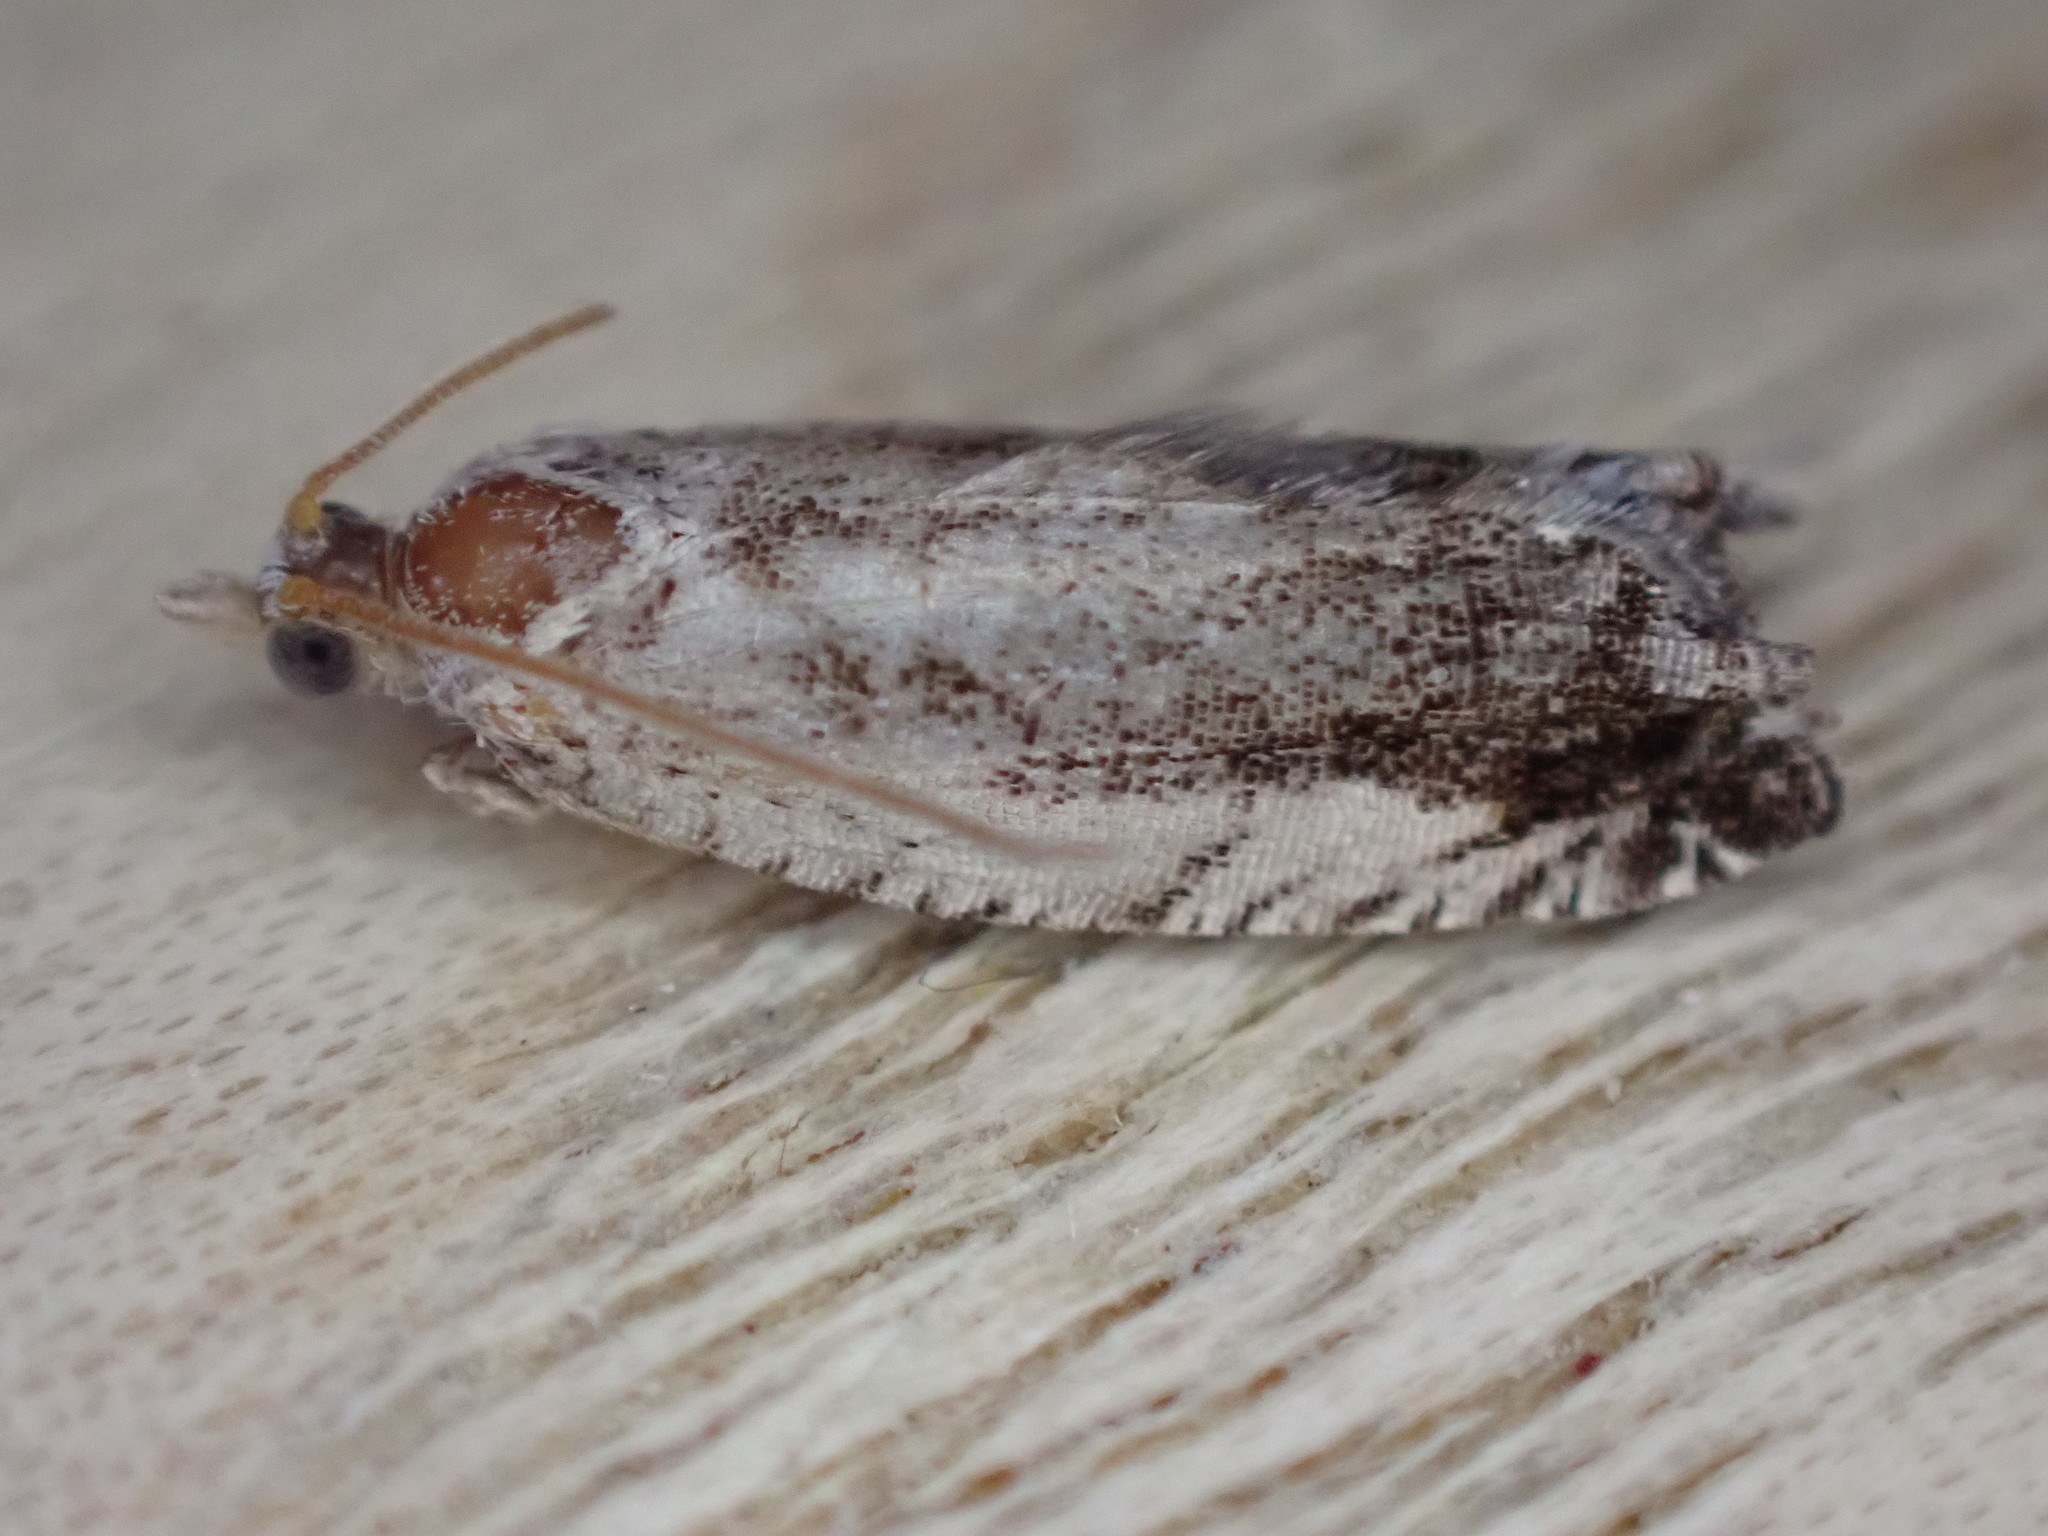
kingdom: Animalia
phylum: Arthropoda
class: Insecta
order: Lepidoptera
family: Tortricidae
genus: Epinotia
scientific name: Epinotia ramella
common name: Small birch bell
